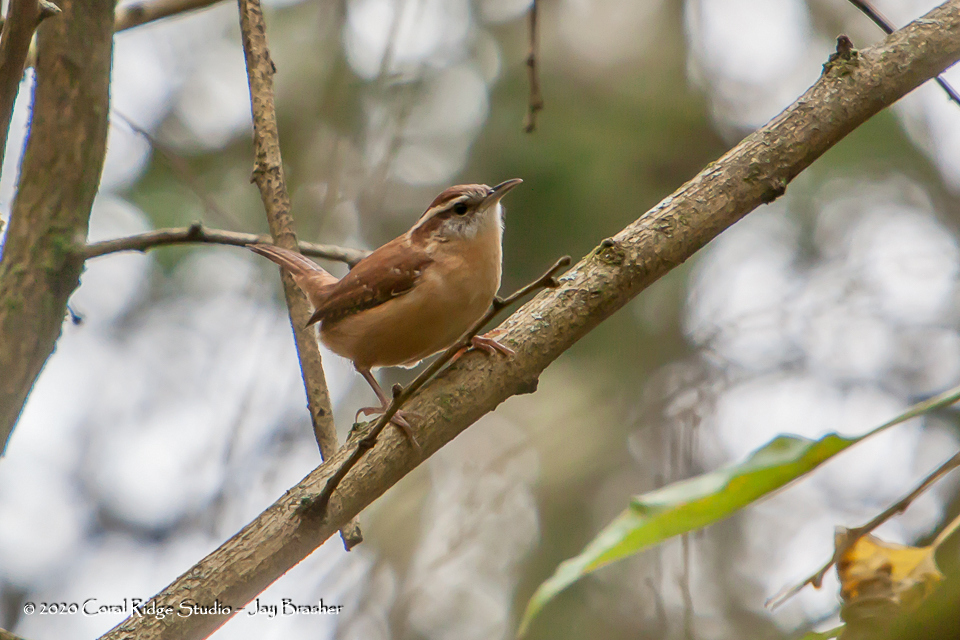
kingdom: Animalia
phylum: Chordata
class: Aves
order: Passeriformes
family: Troglodytidae
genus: Thryothorus
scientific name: Thryothorus ludovicianus
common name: Carolina wren
